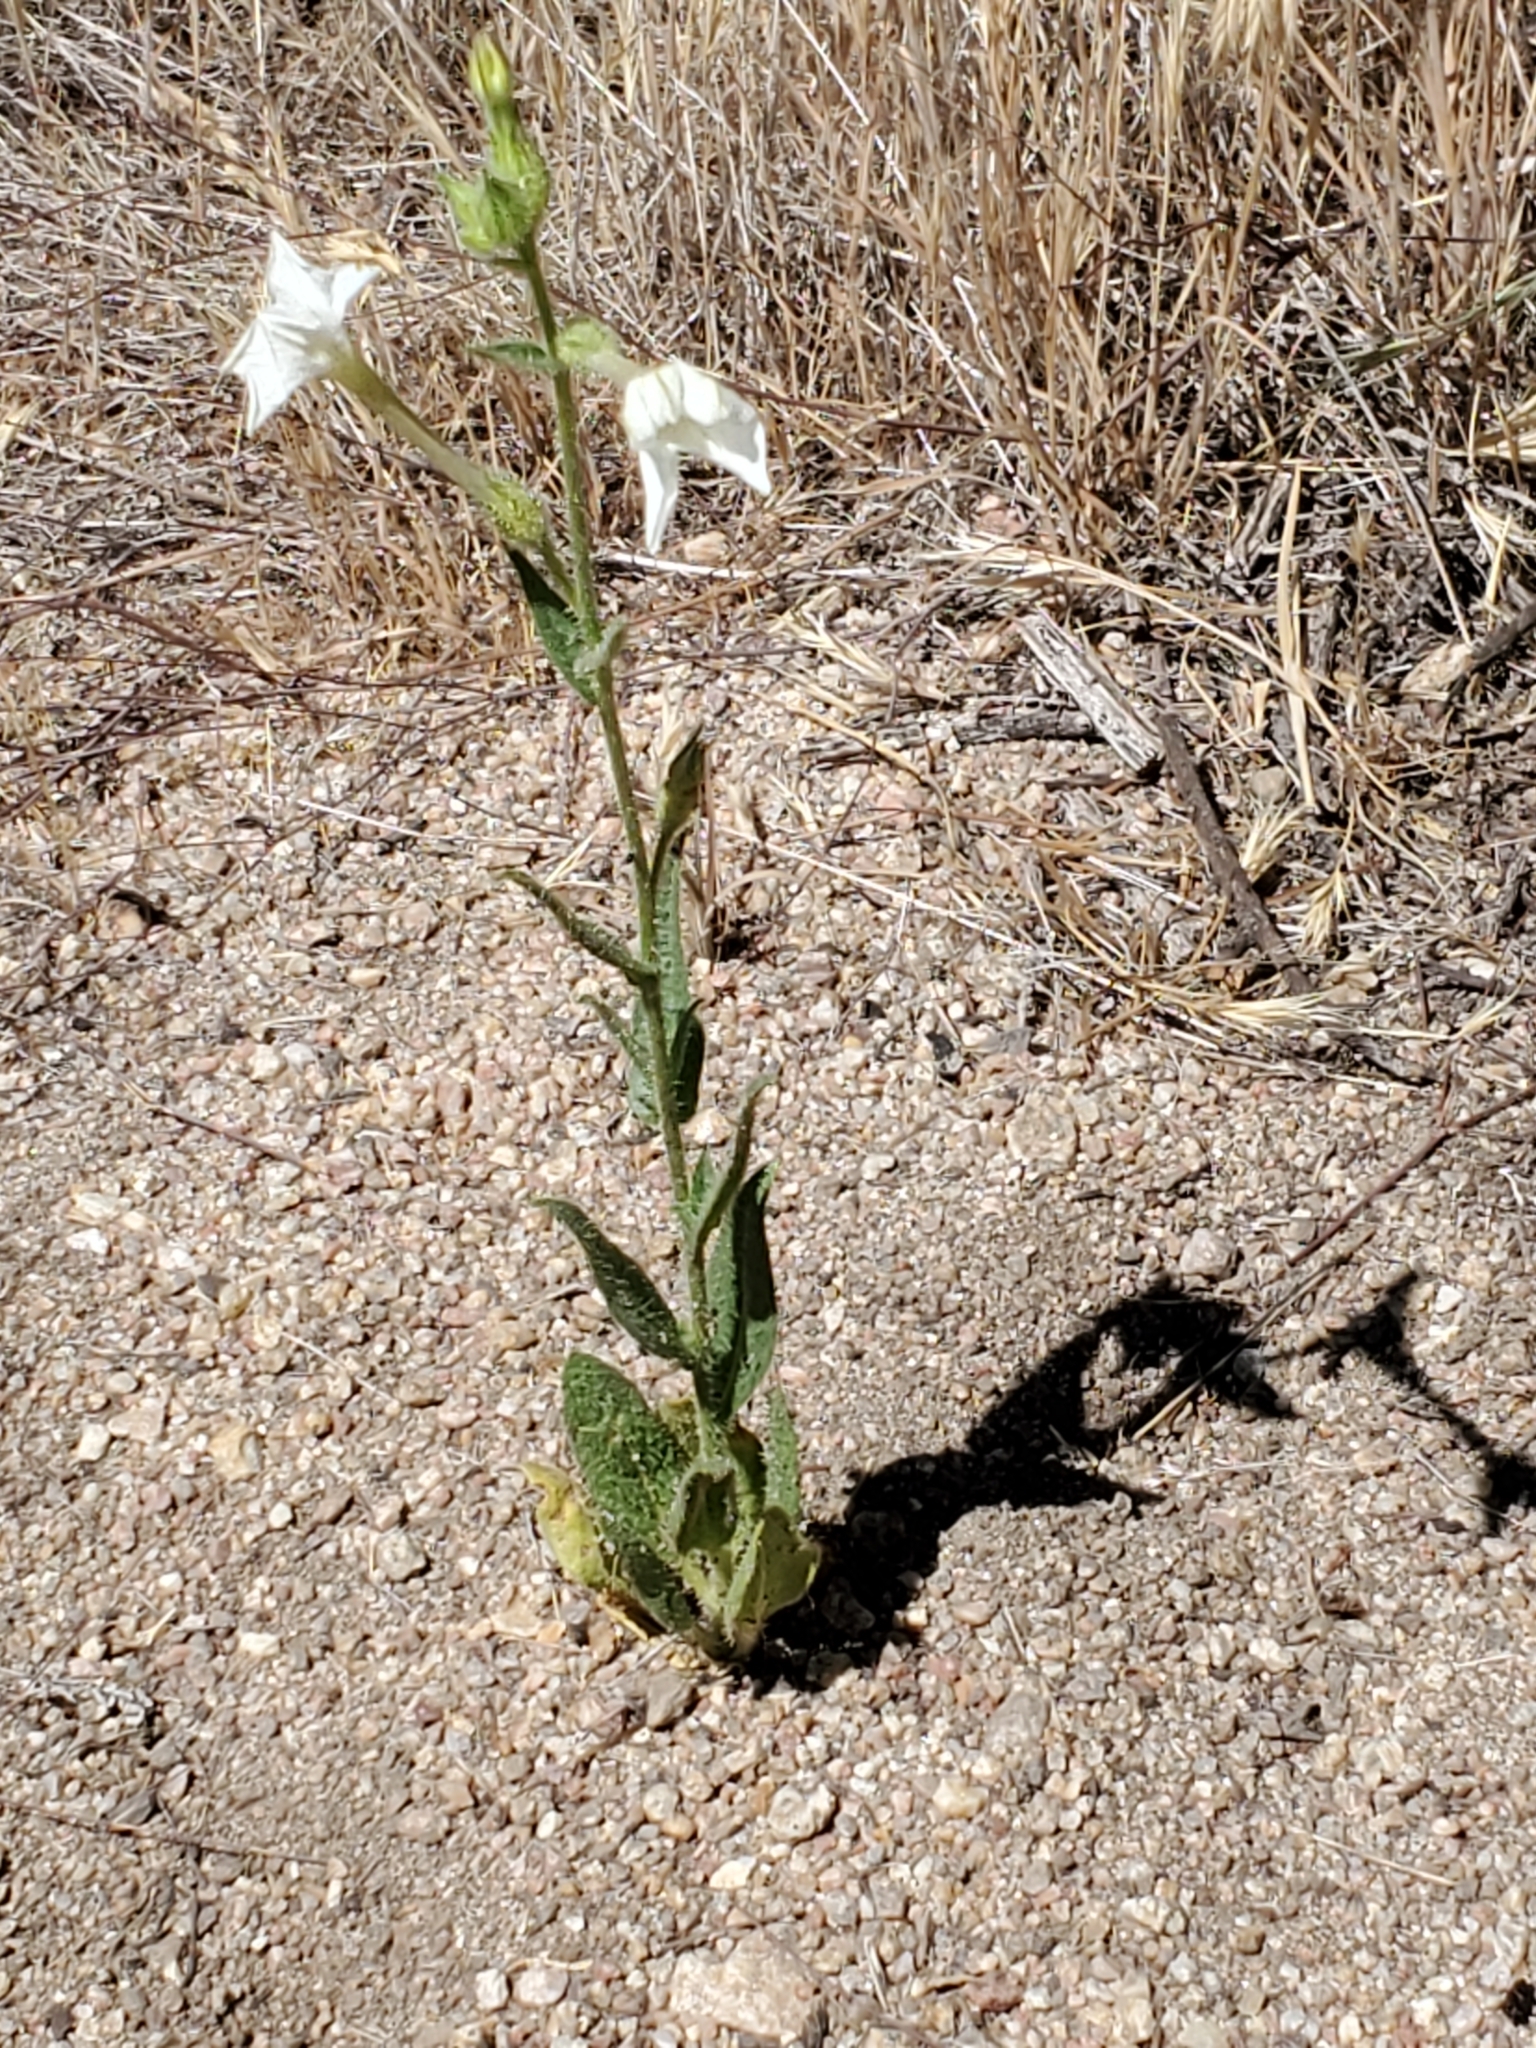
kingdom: Plantae
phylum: Tracheophyta
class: Magnoliopsida
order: Solanales
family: Solanaceae
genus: Nicotiana
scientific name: Nicotiana quadrivalvis
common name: Indian tobacco
